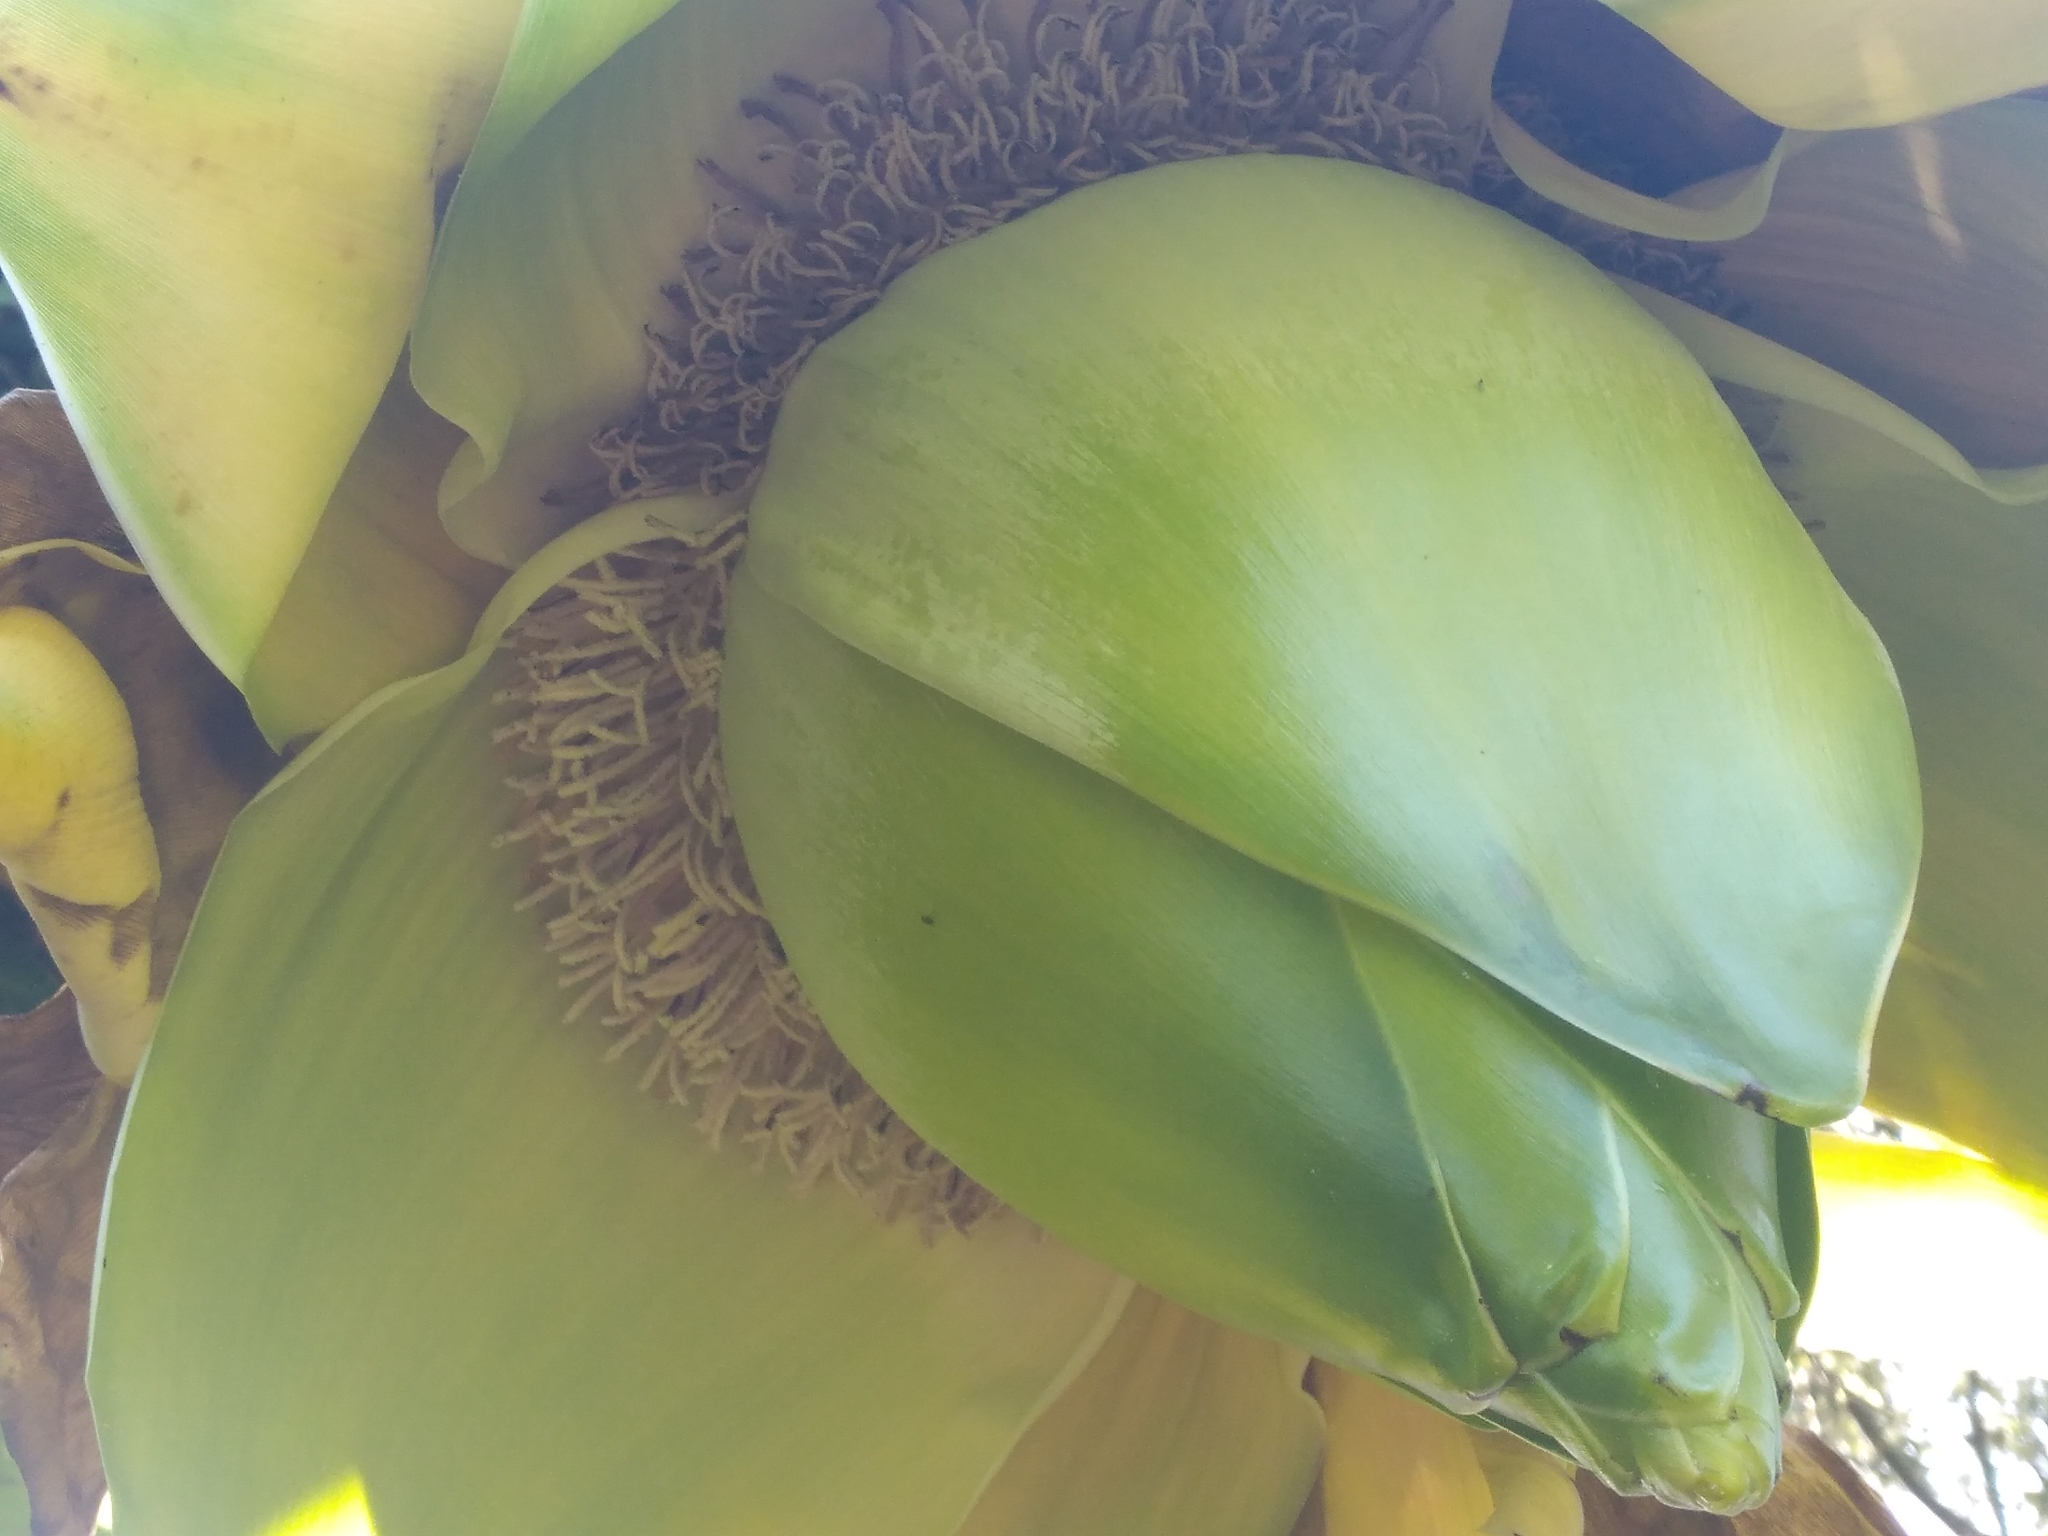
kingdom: Plantae
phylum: Tracheophyta
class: Liliopsida
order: Zingiberales
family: Musaceae
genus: Ensete
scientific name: Ensete ventricosum
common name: Abyssinian banana
